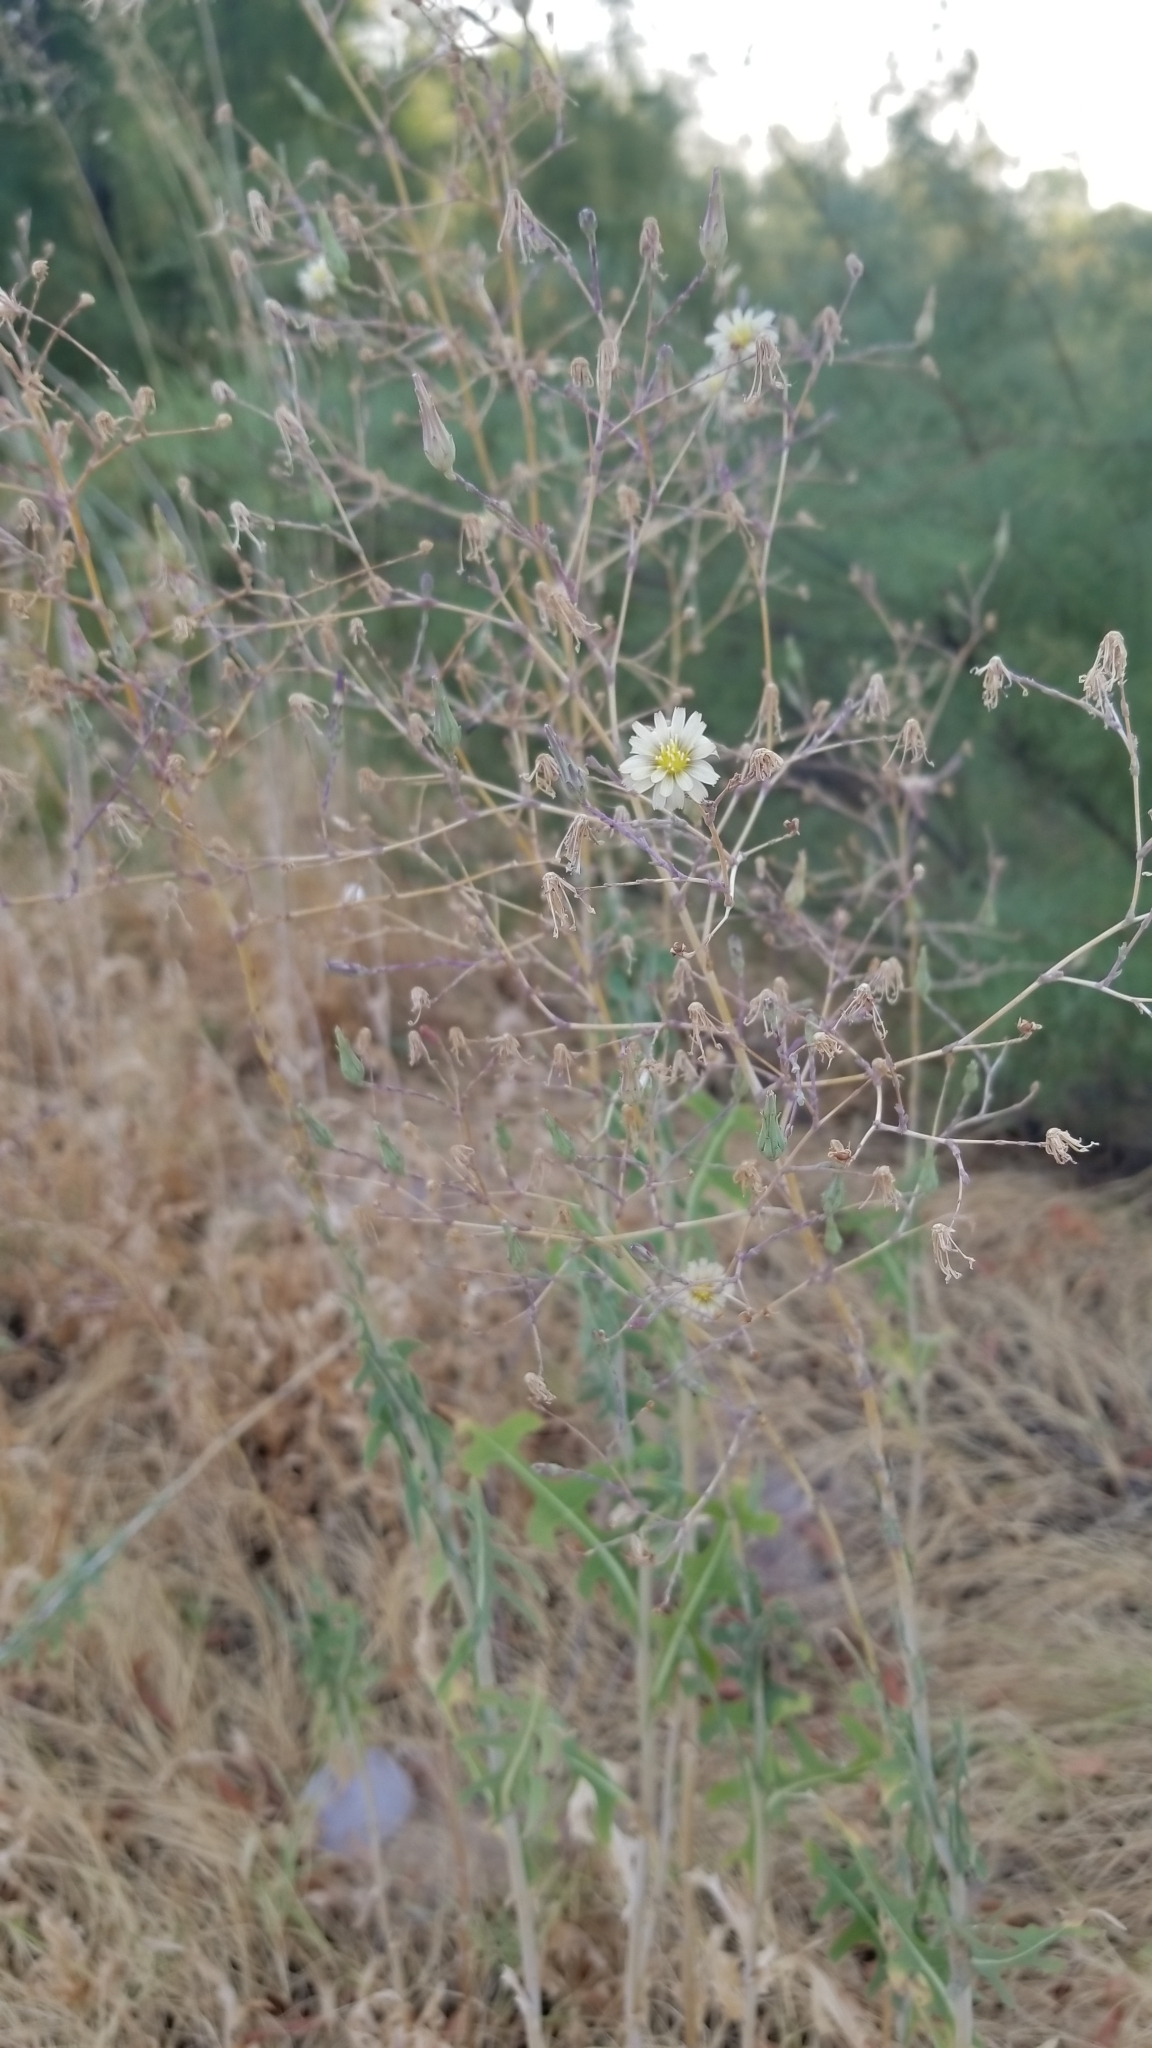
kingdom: Plantae
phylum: Tracheophyta
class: Magnoliopsida
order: Asterales
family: Asteraceae
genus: Lactuca
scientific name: Lactuca serriola
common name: Prickly lettuce
